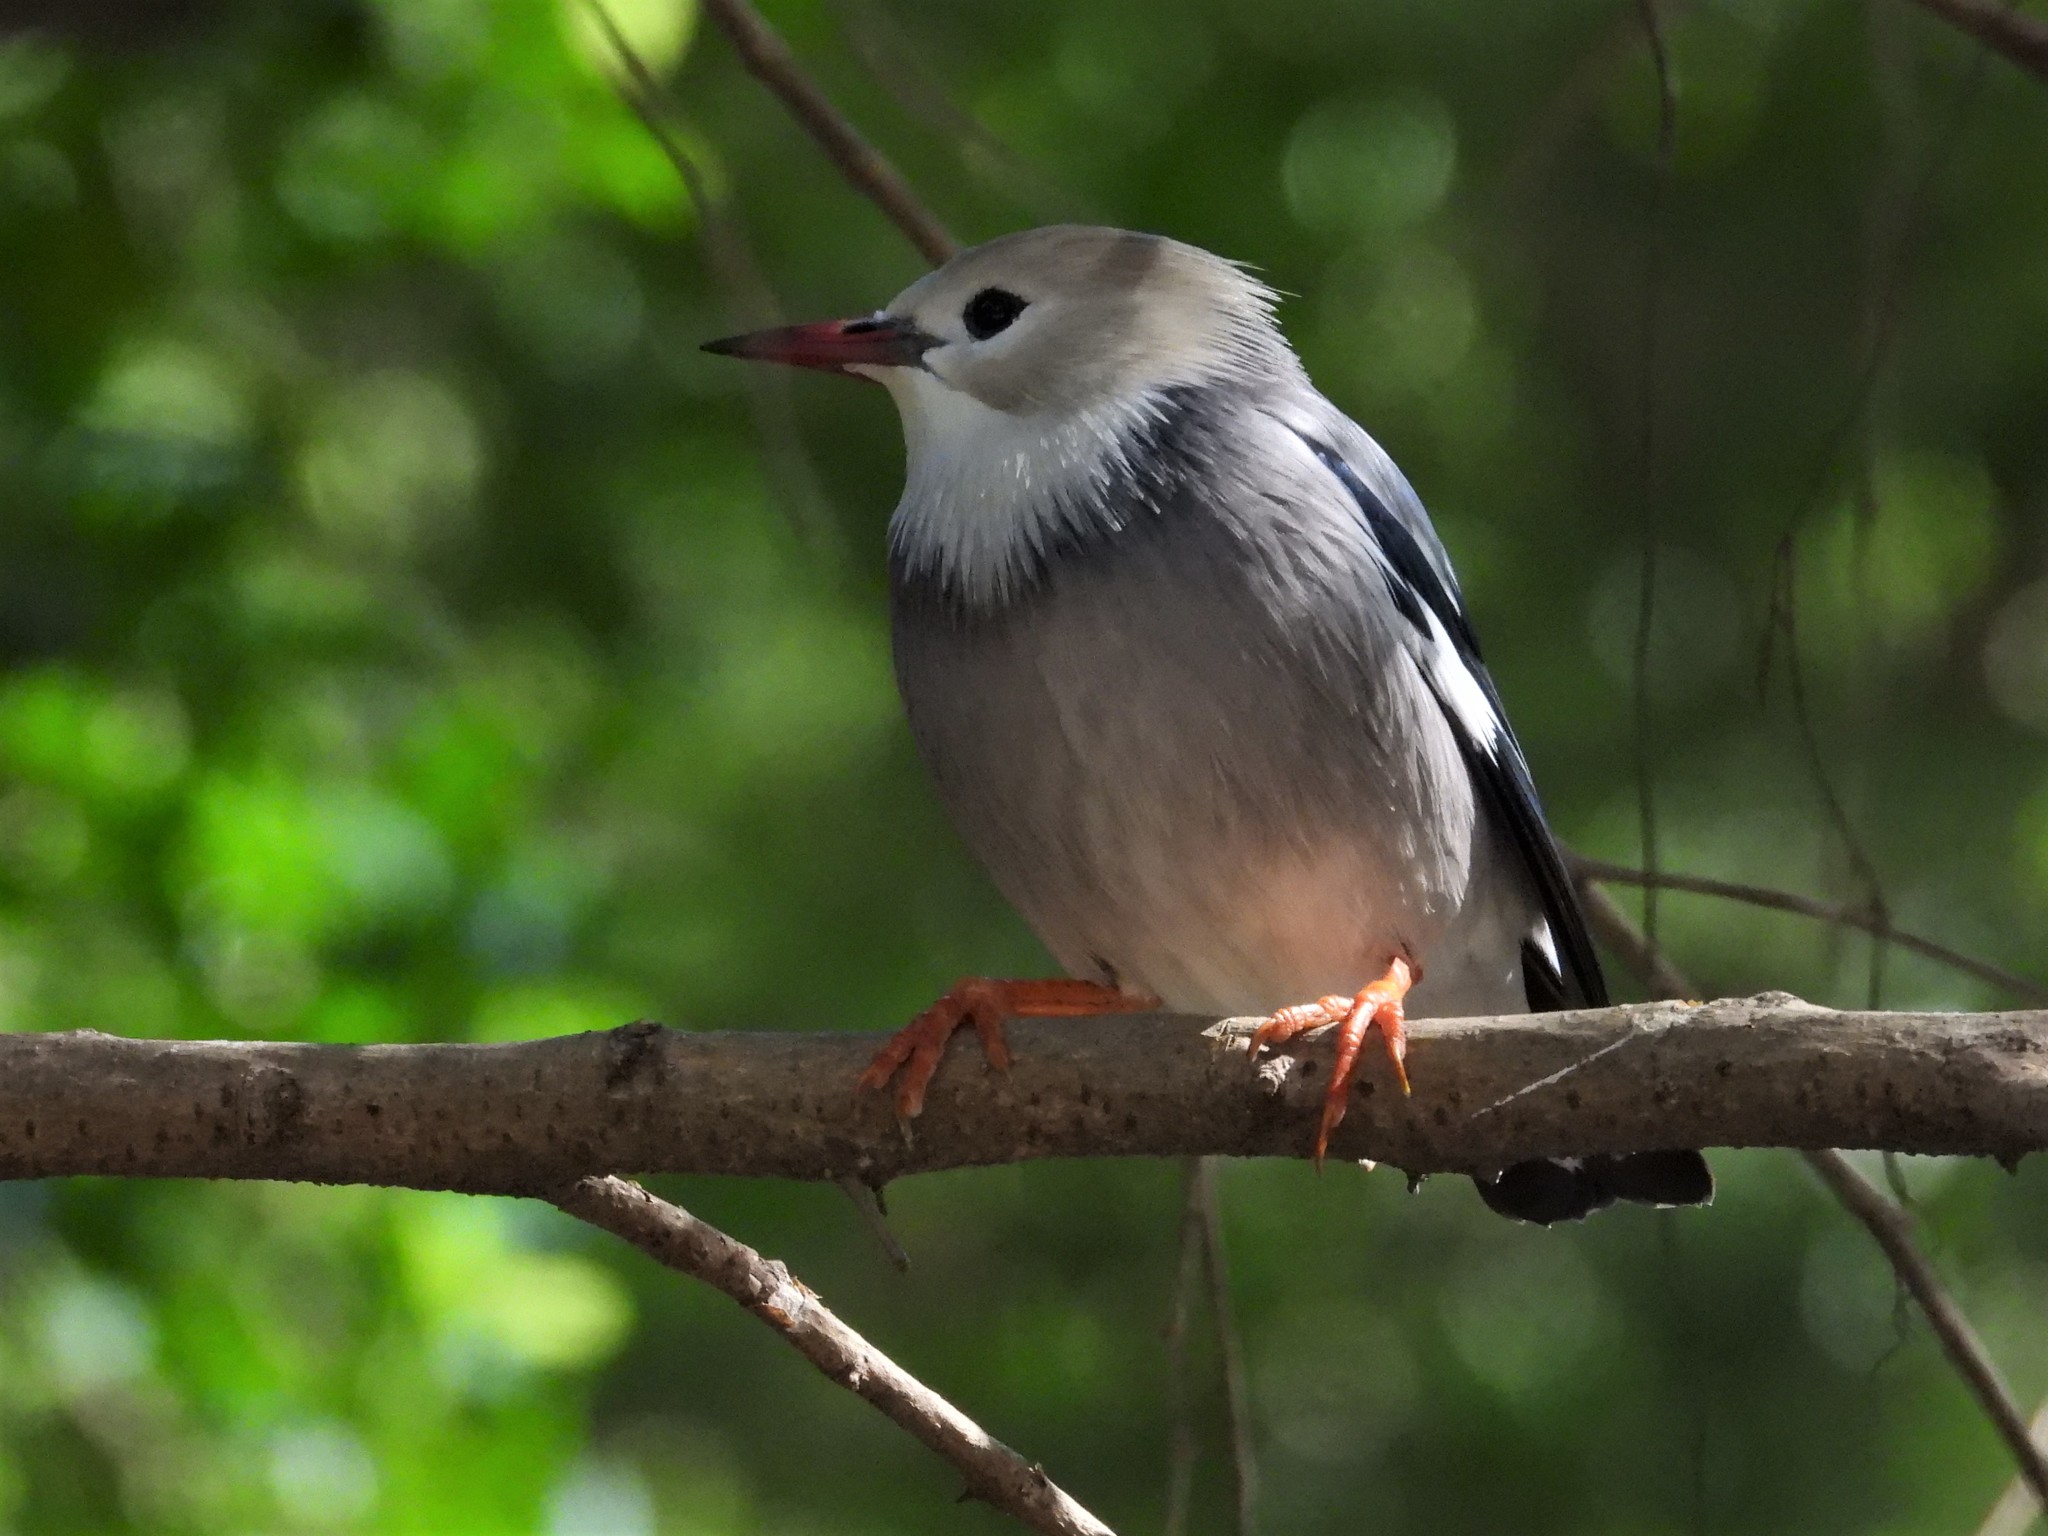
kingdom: Animalia
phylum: Chordata
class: Aves
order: Passeriformes
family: Sturnidae
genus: Spodiopsar
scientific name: Spodiopsar sericeus
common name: Red-billed starling
